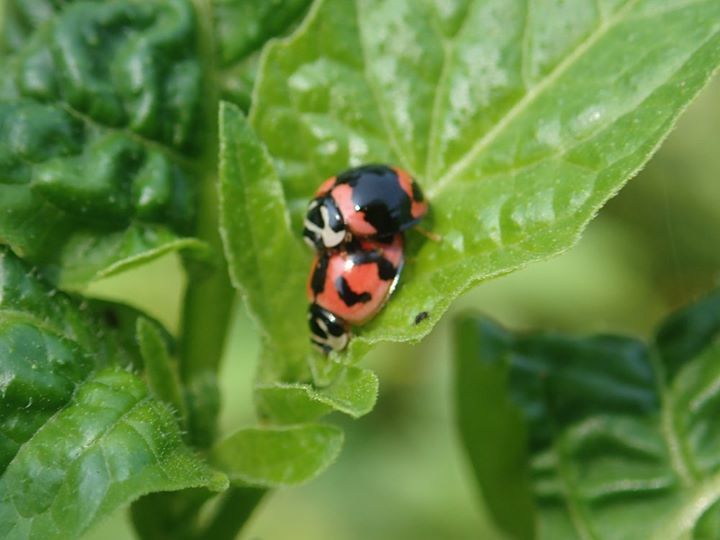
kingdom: Animalia
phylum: Arthropoda
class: Insecta
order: Coleoptera
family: Coccinellidae
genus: Cheilomenes
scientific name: Cheilomenes sexmaculata
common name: Ladybird beetle
